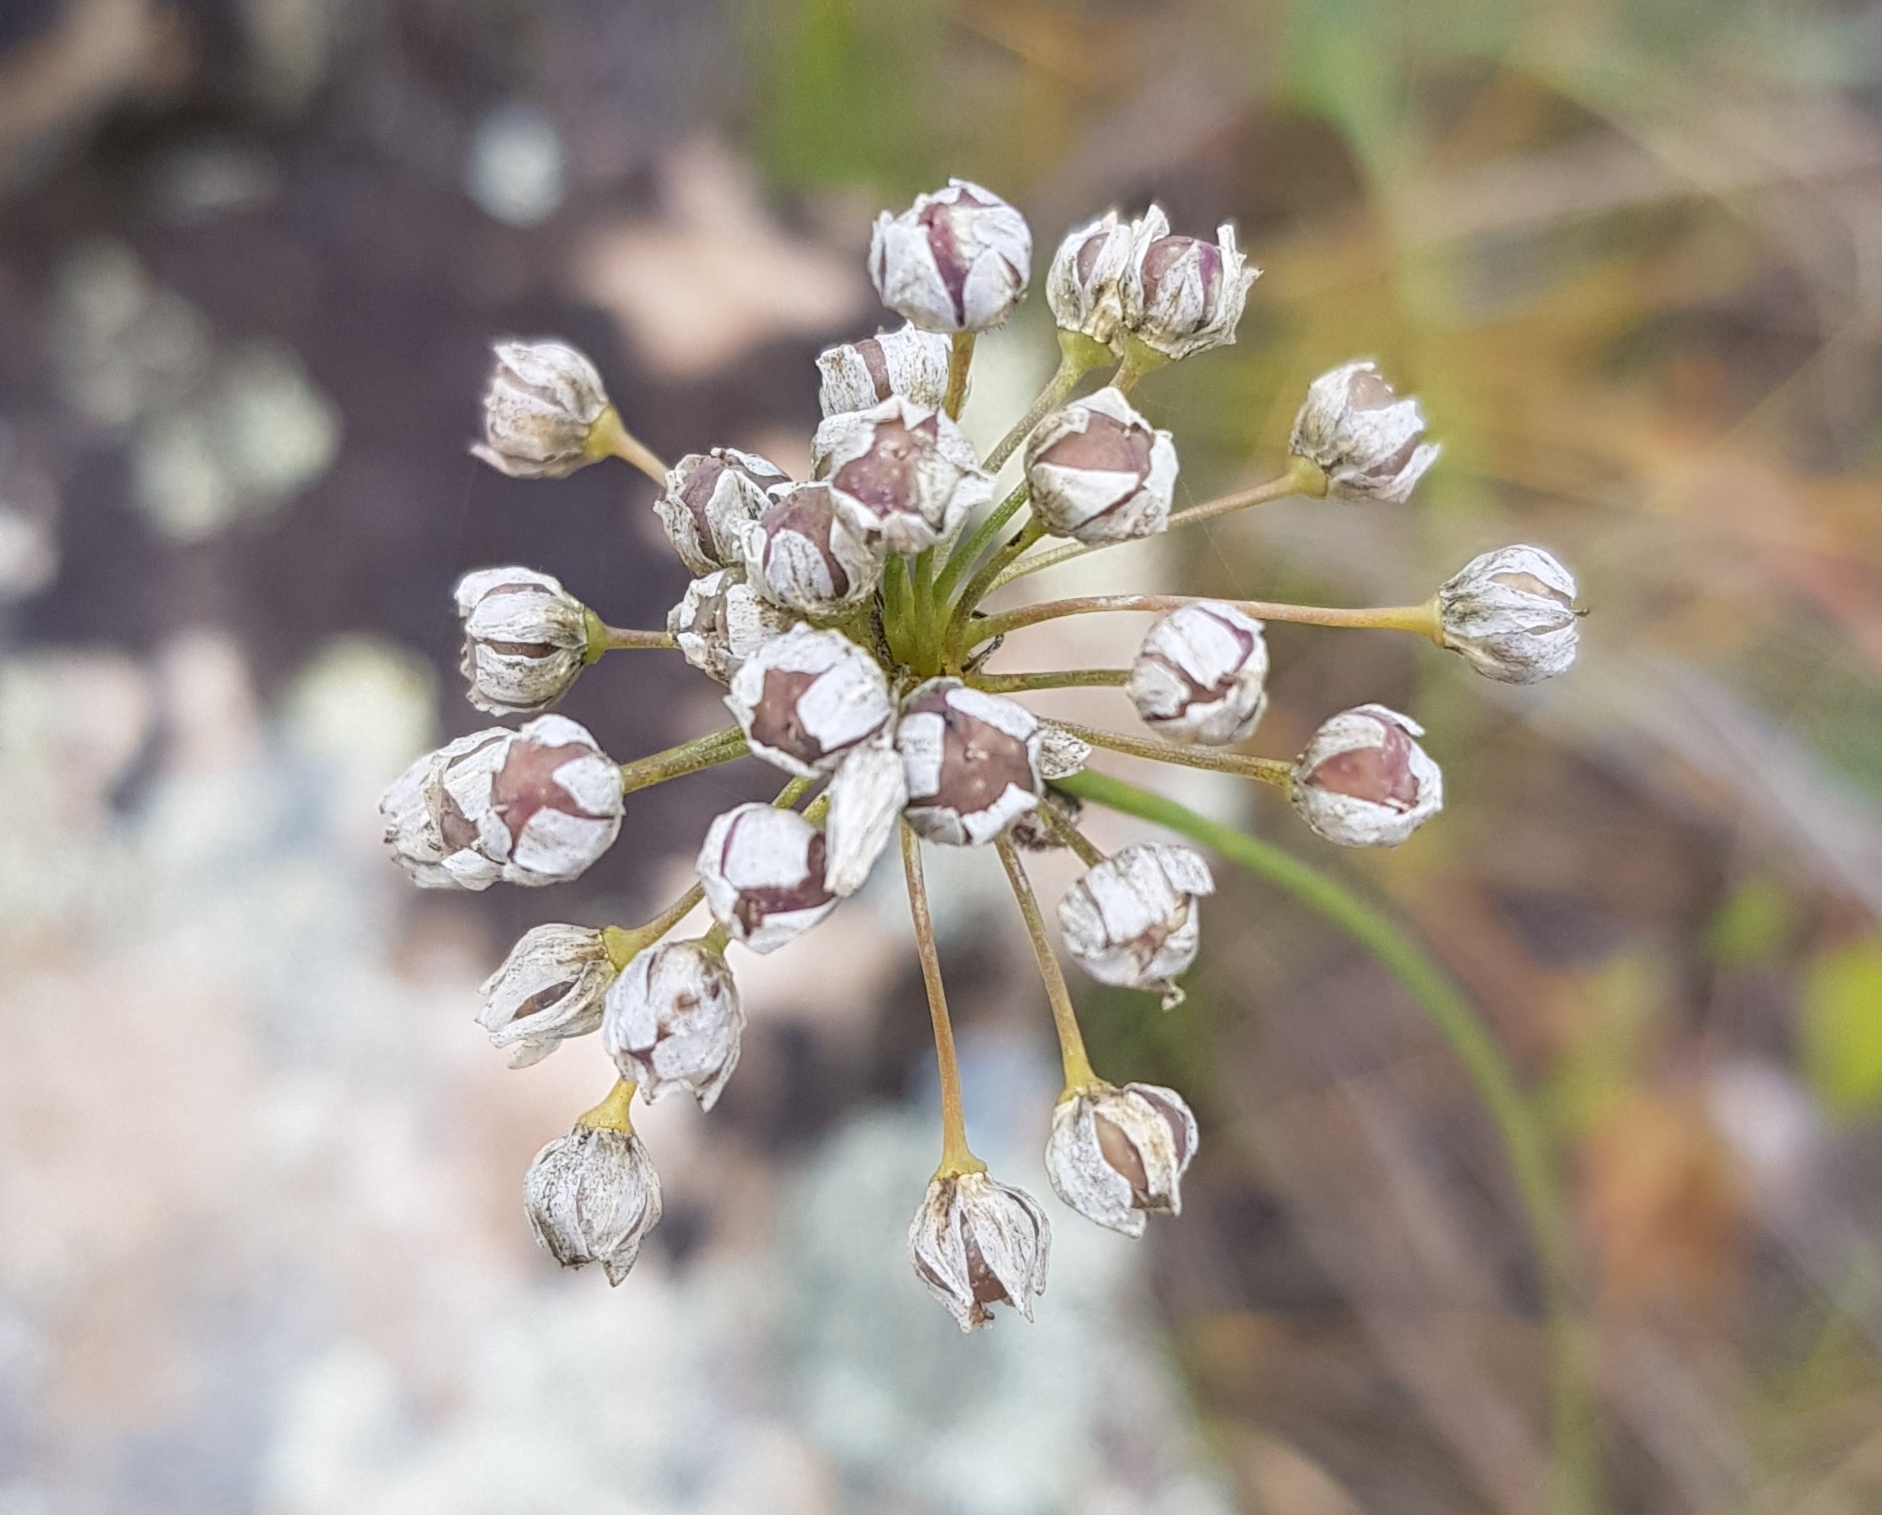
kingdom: Plantae
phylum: Tracheophyta
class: Liliopsida
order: Asparagales
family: Amaryllidaceae
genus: Allium
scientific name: Allium anisopodium
